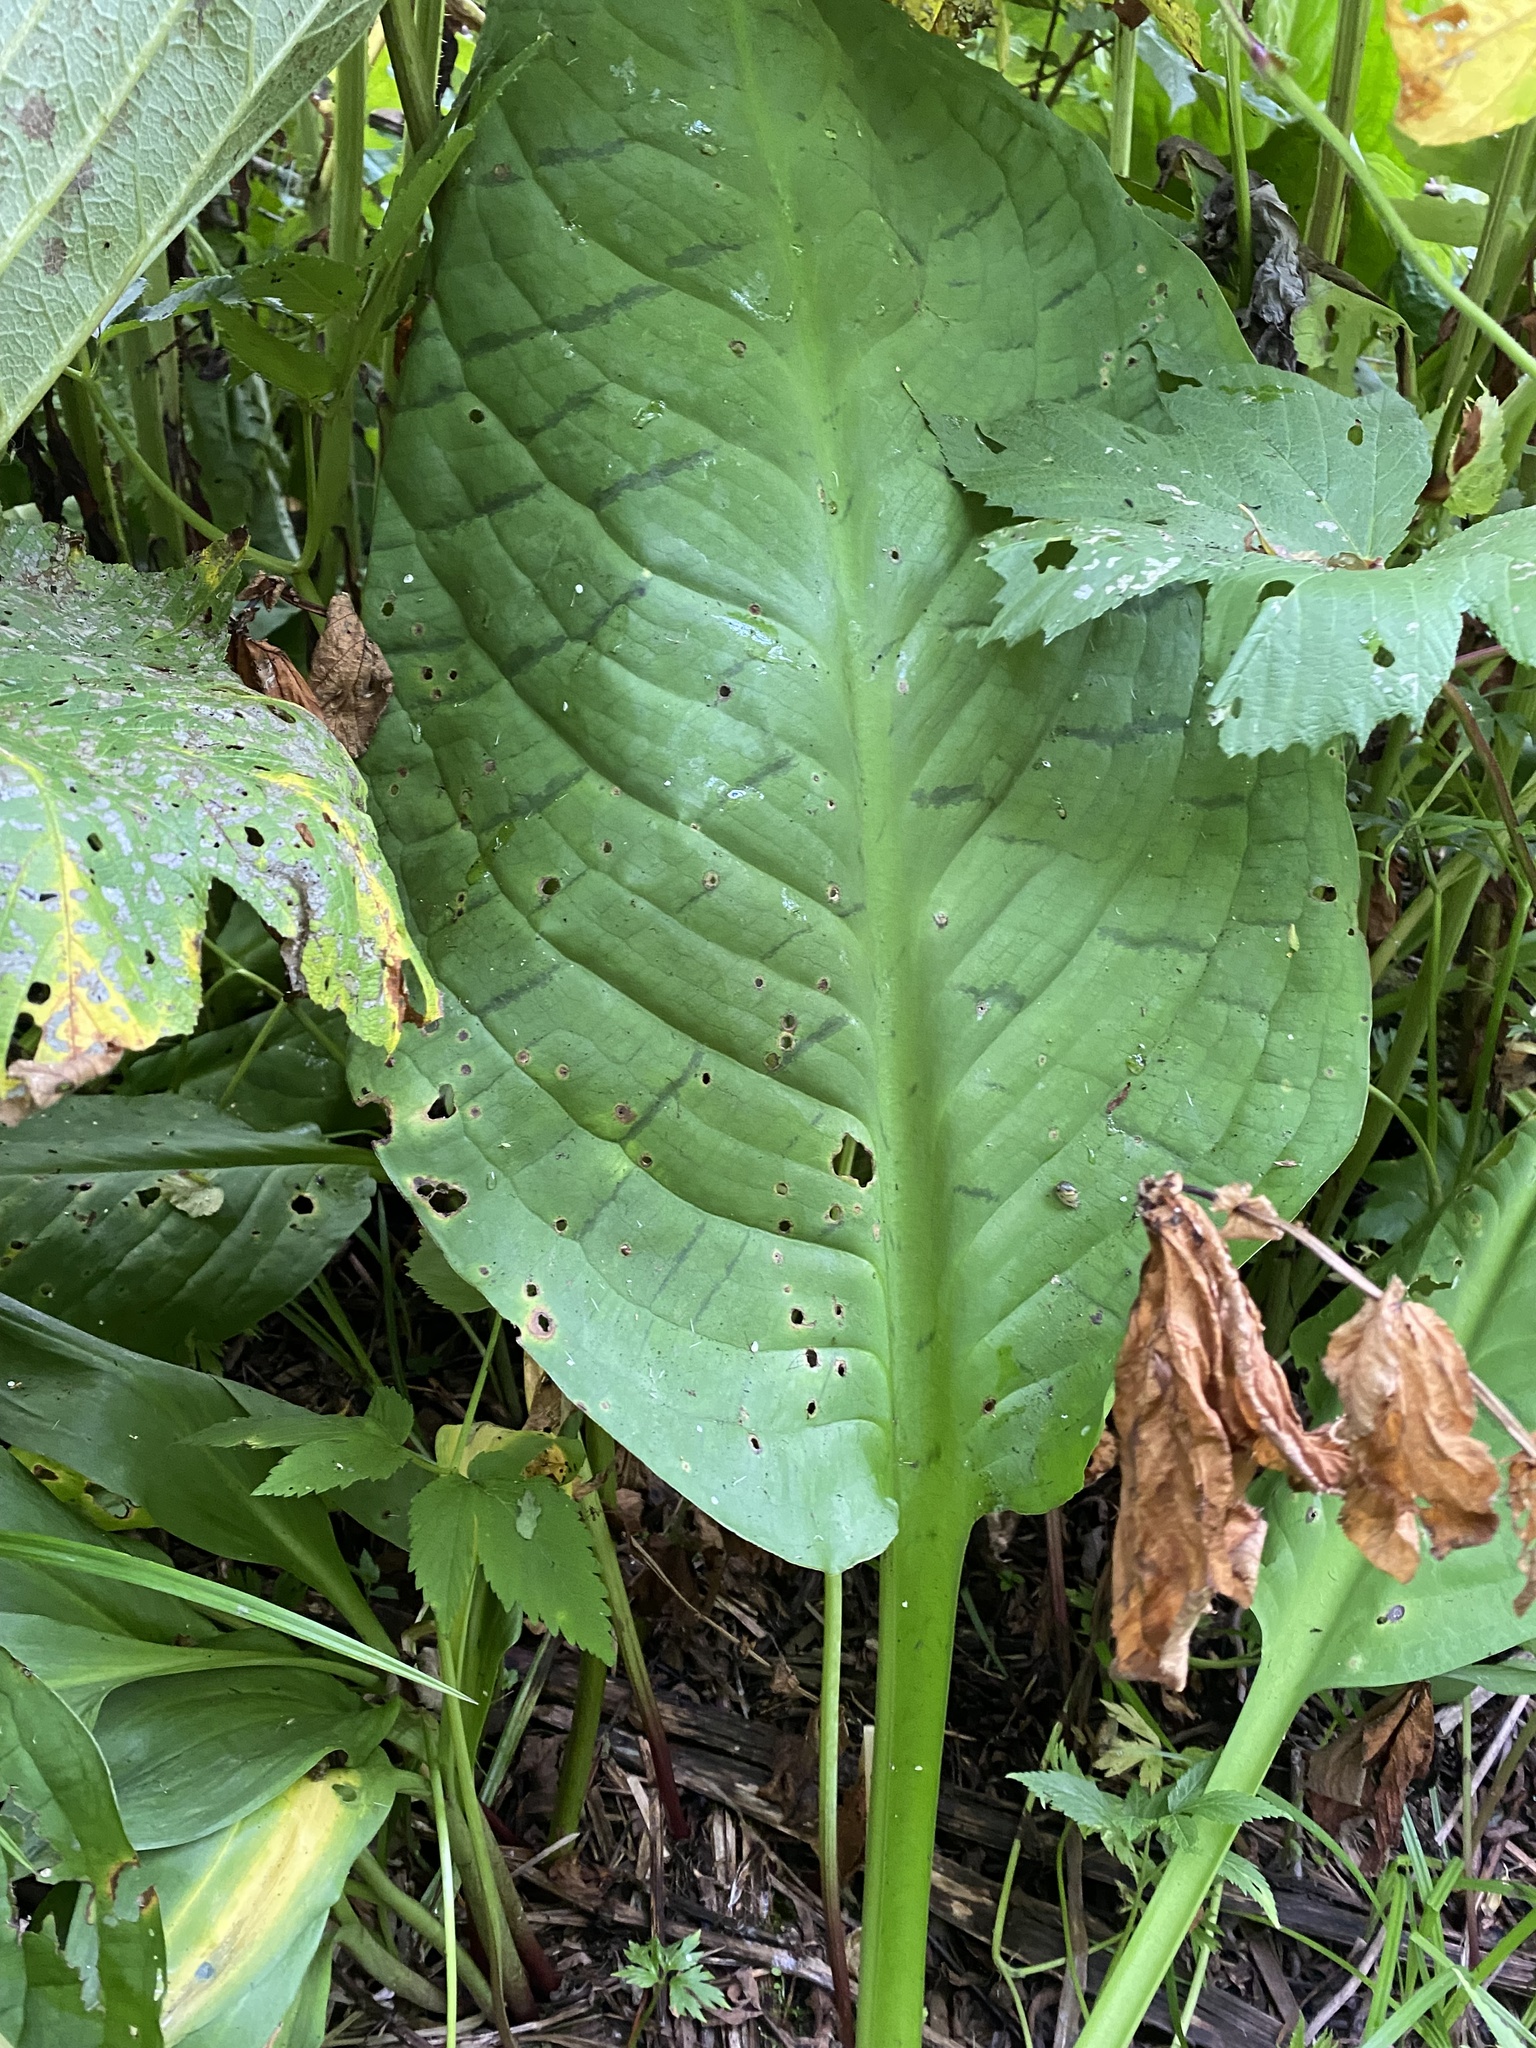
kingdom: Plantae
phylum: Tracheophyta
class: Liliopsida
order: Alismatales
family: Araceae
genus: Lysichiton
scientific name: Lysichiton camtschatcensis
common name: Asian skunk-cabbage
